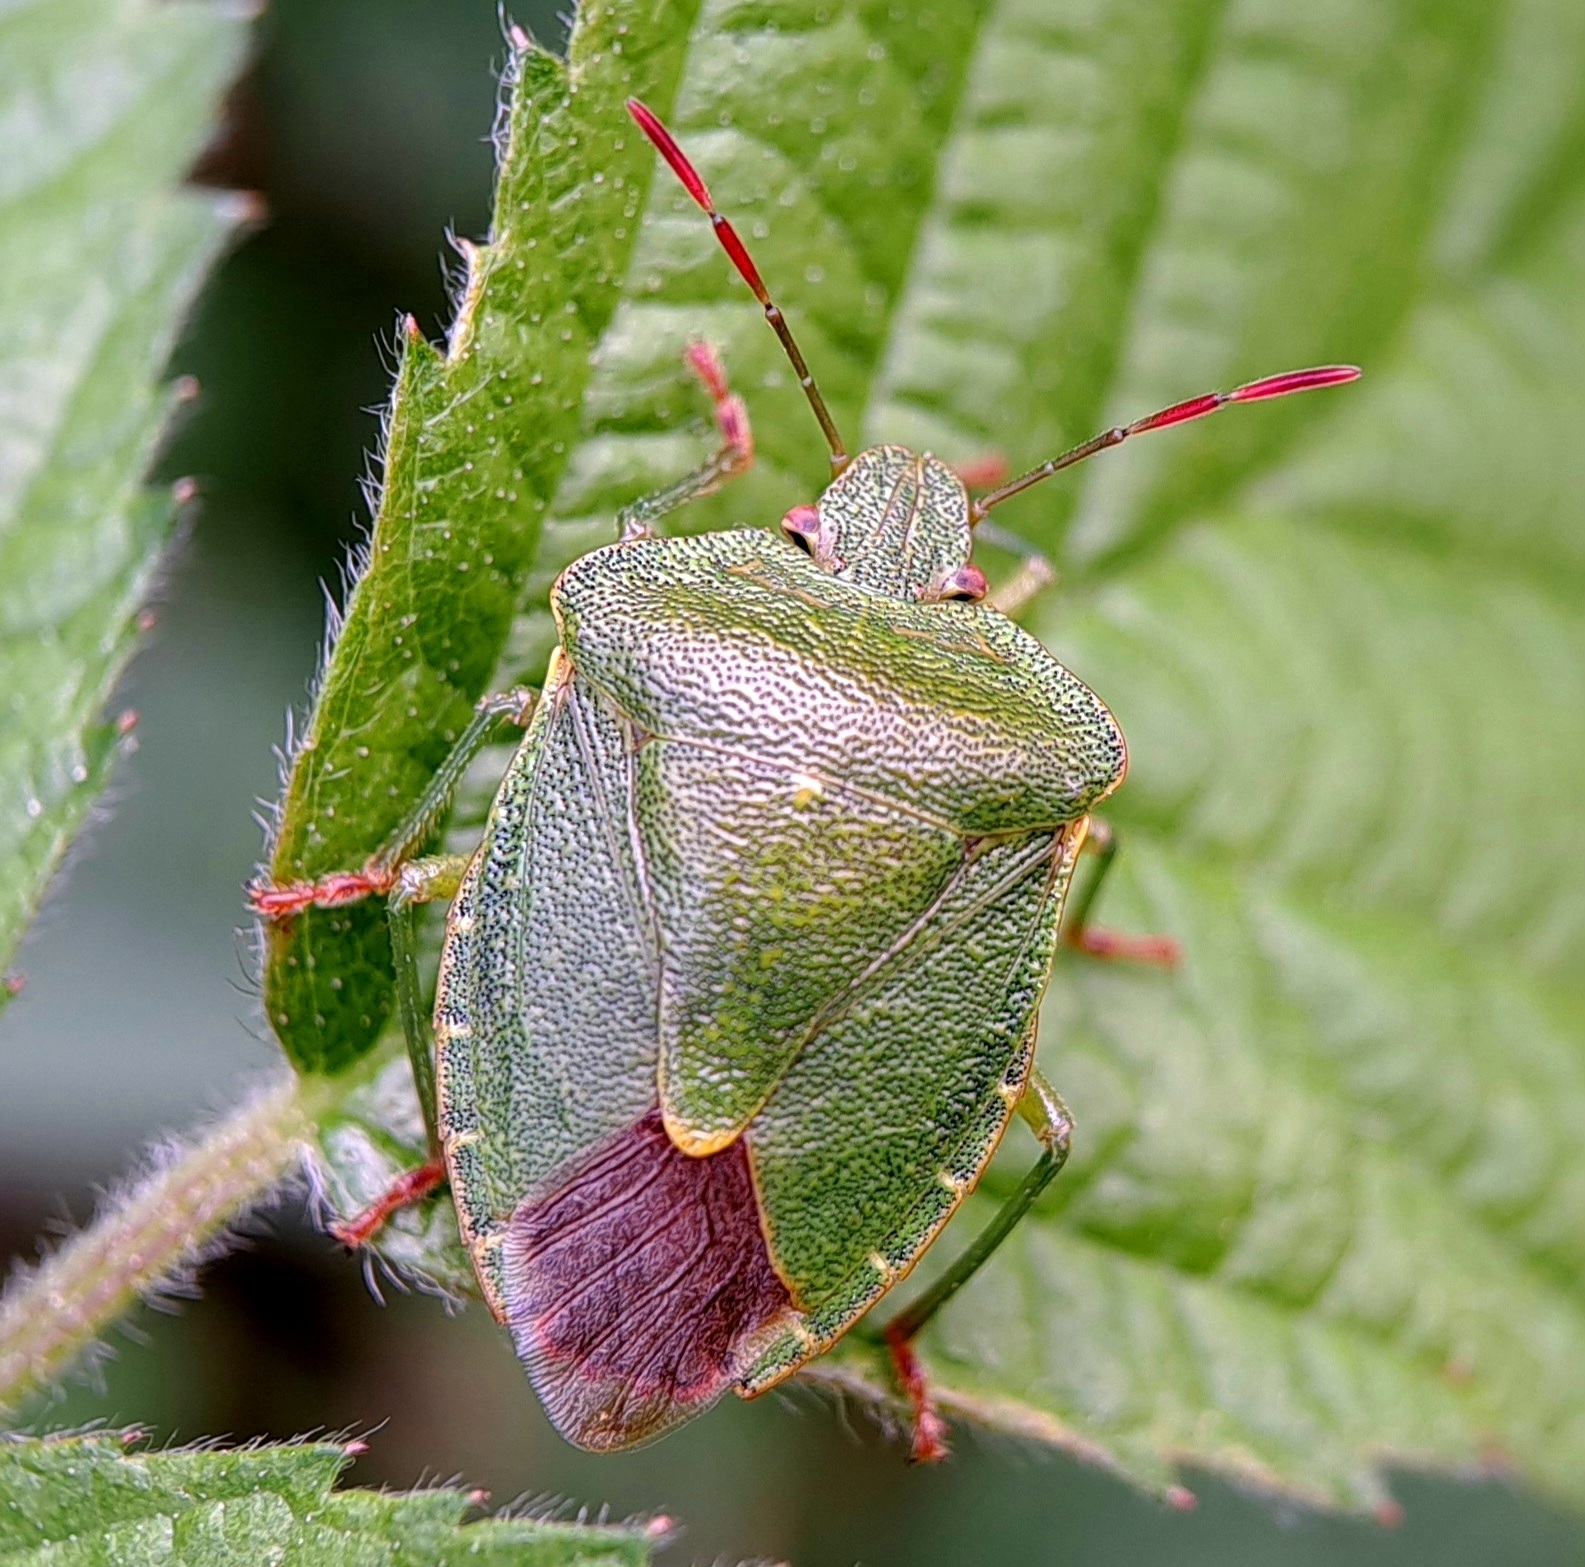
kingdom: Animalia
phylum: Arthropoda
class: Insecta
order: Hemiptera
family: Pentatomidae
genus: Palomena
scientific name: Palomena prasina
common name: Green shieldbug
